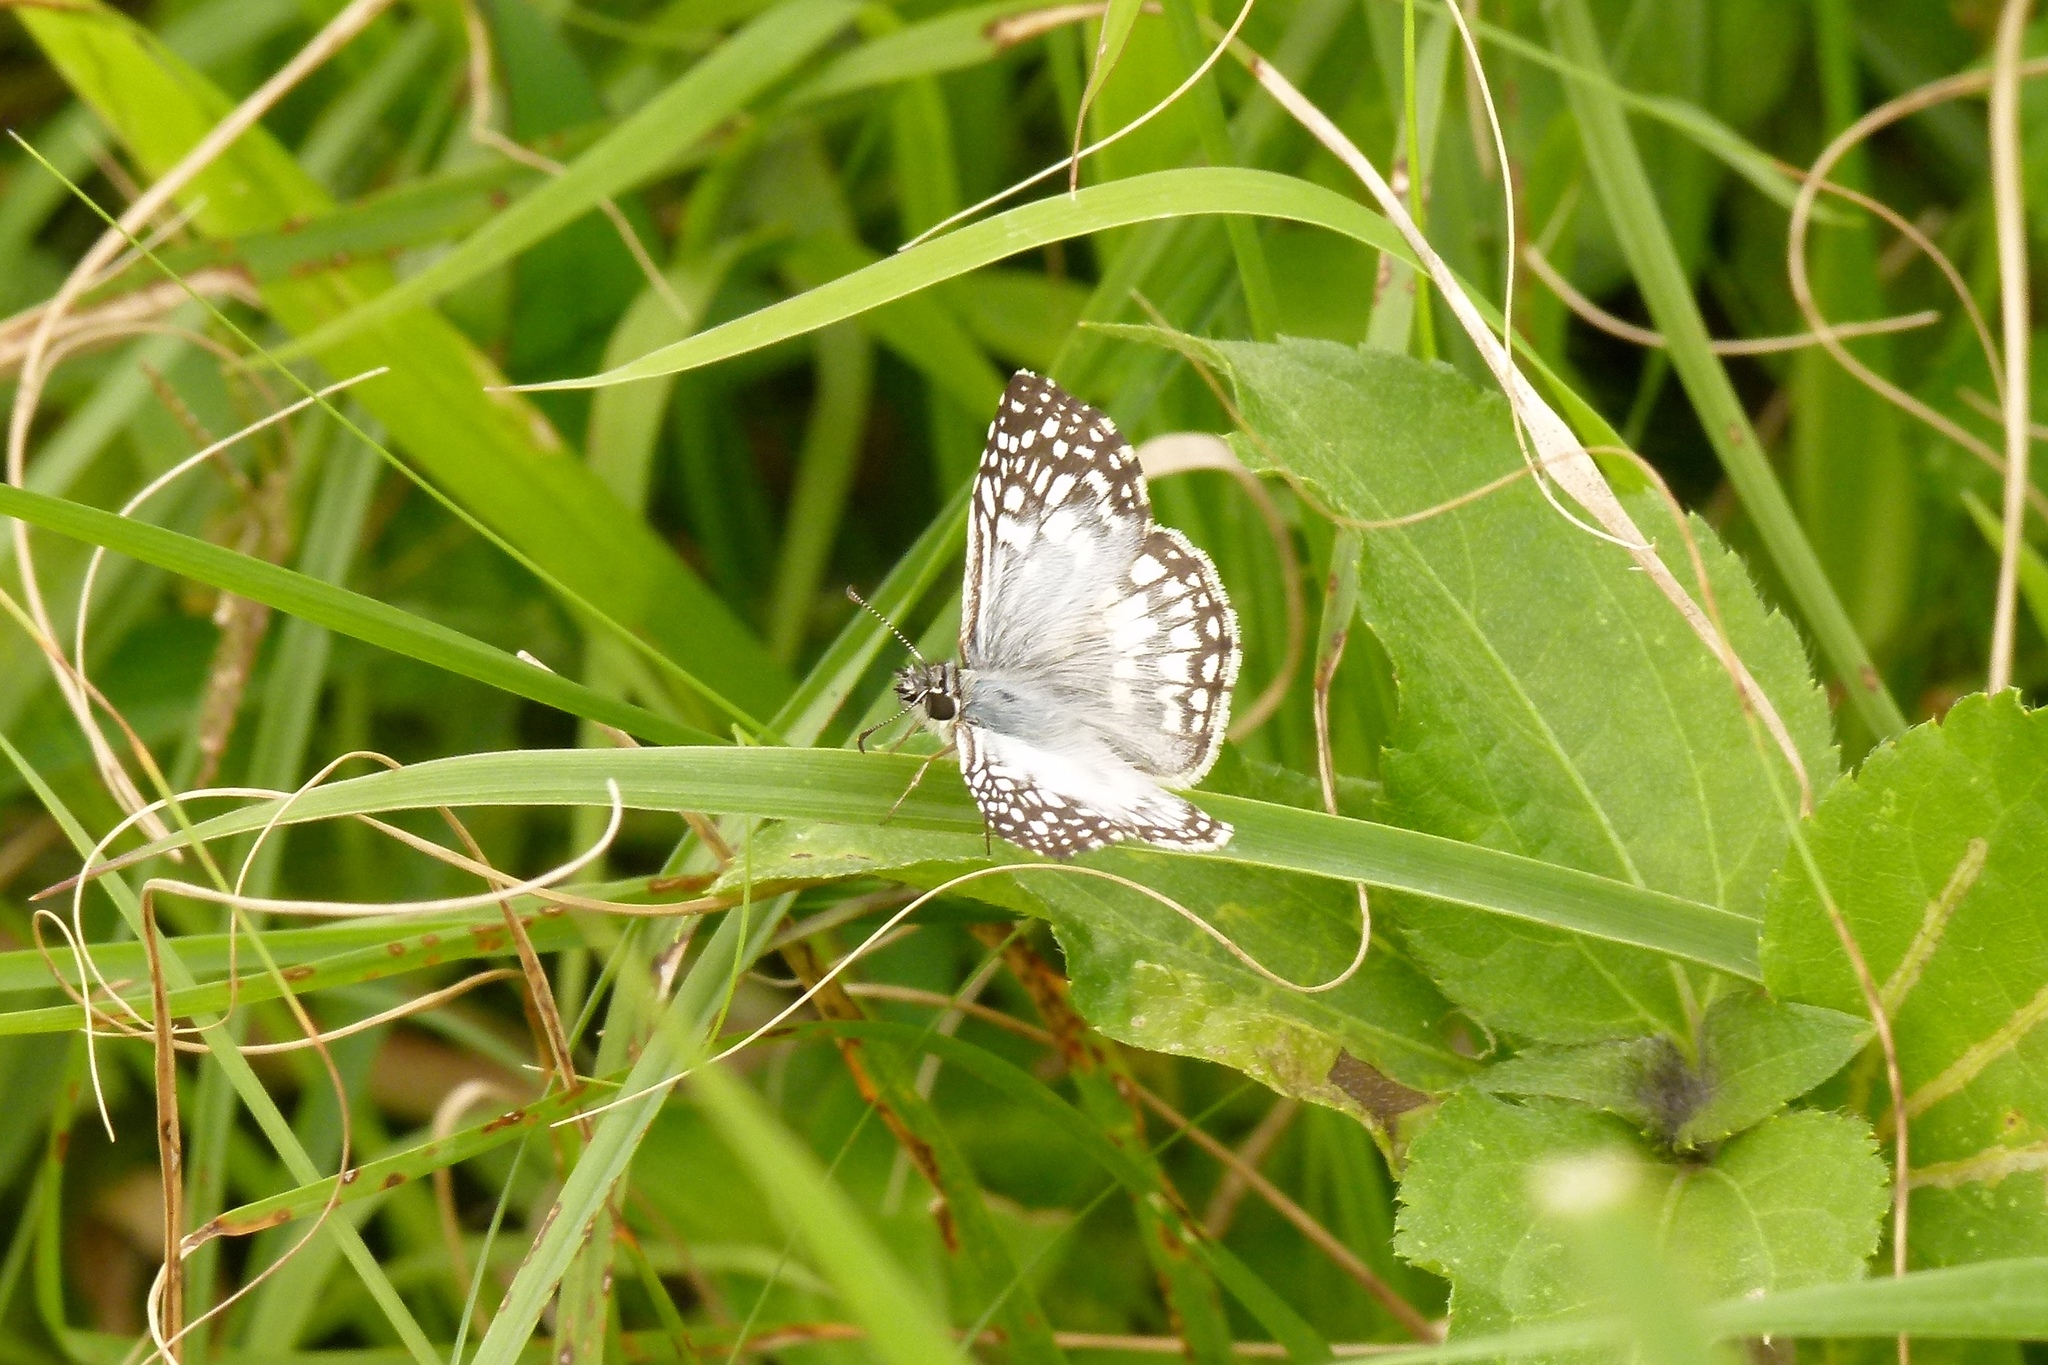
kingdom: Animalia
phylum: Arthropoda
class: Insecta
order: Lepidoptera
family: Hesperiidae
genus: Pyrgus
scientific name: Pyrgus oileus
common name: Tropical checkered-skipper
